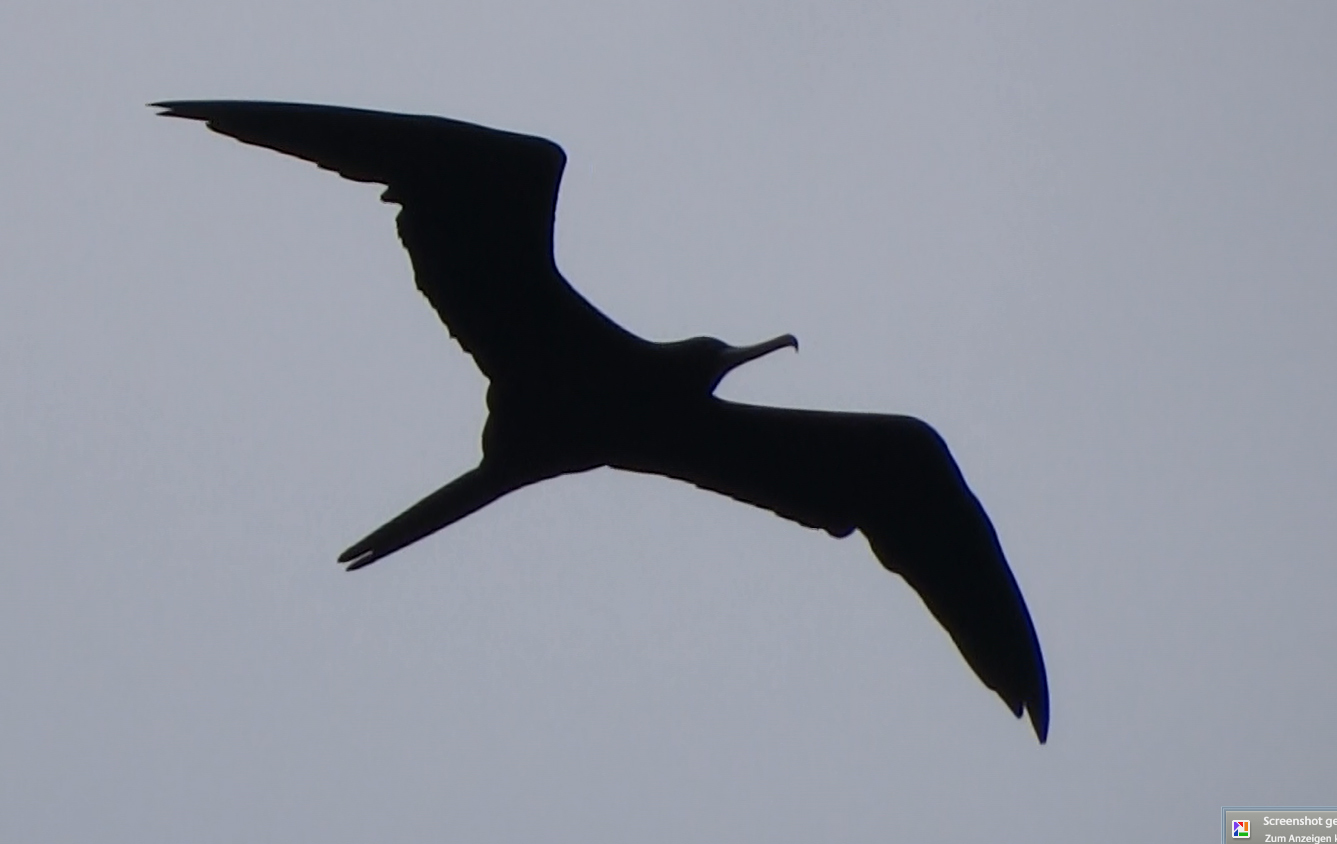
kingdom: Animalia
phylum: Chordata
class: Aves
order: Suliformes
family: Fregatidae
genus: Fregata
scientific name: Fregata minor
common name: Great frigatebird
